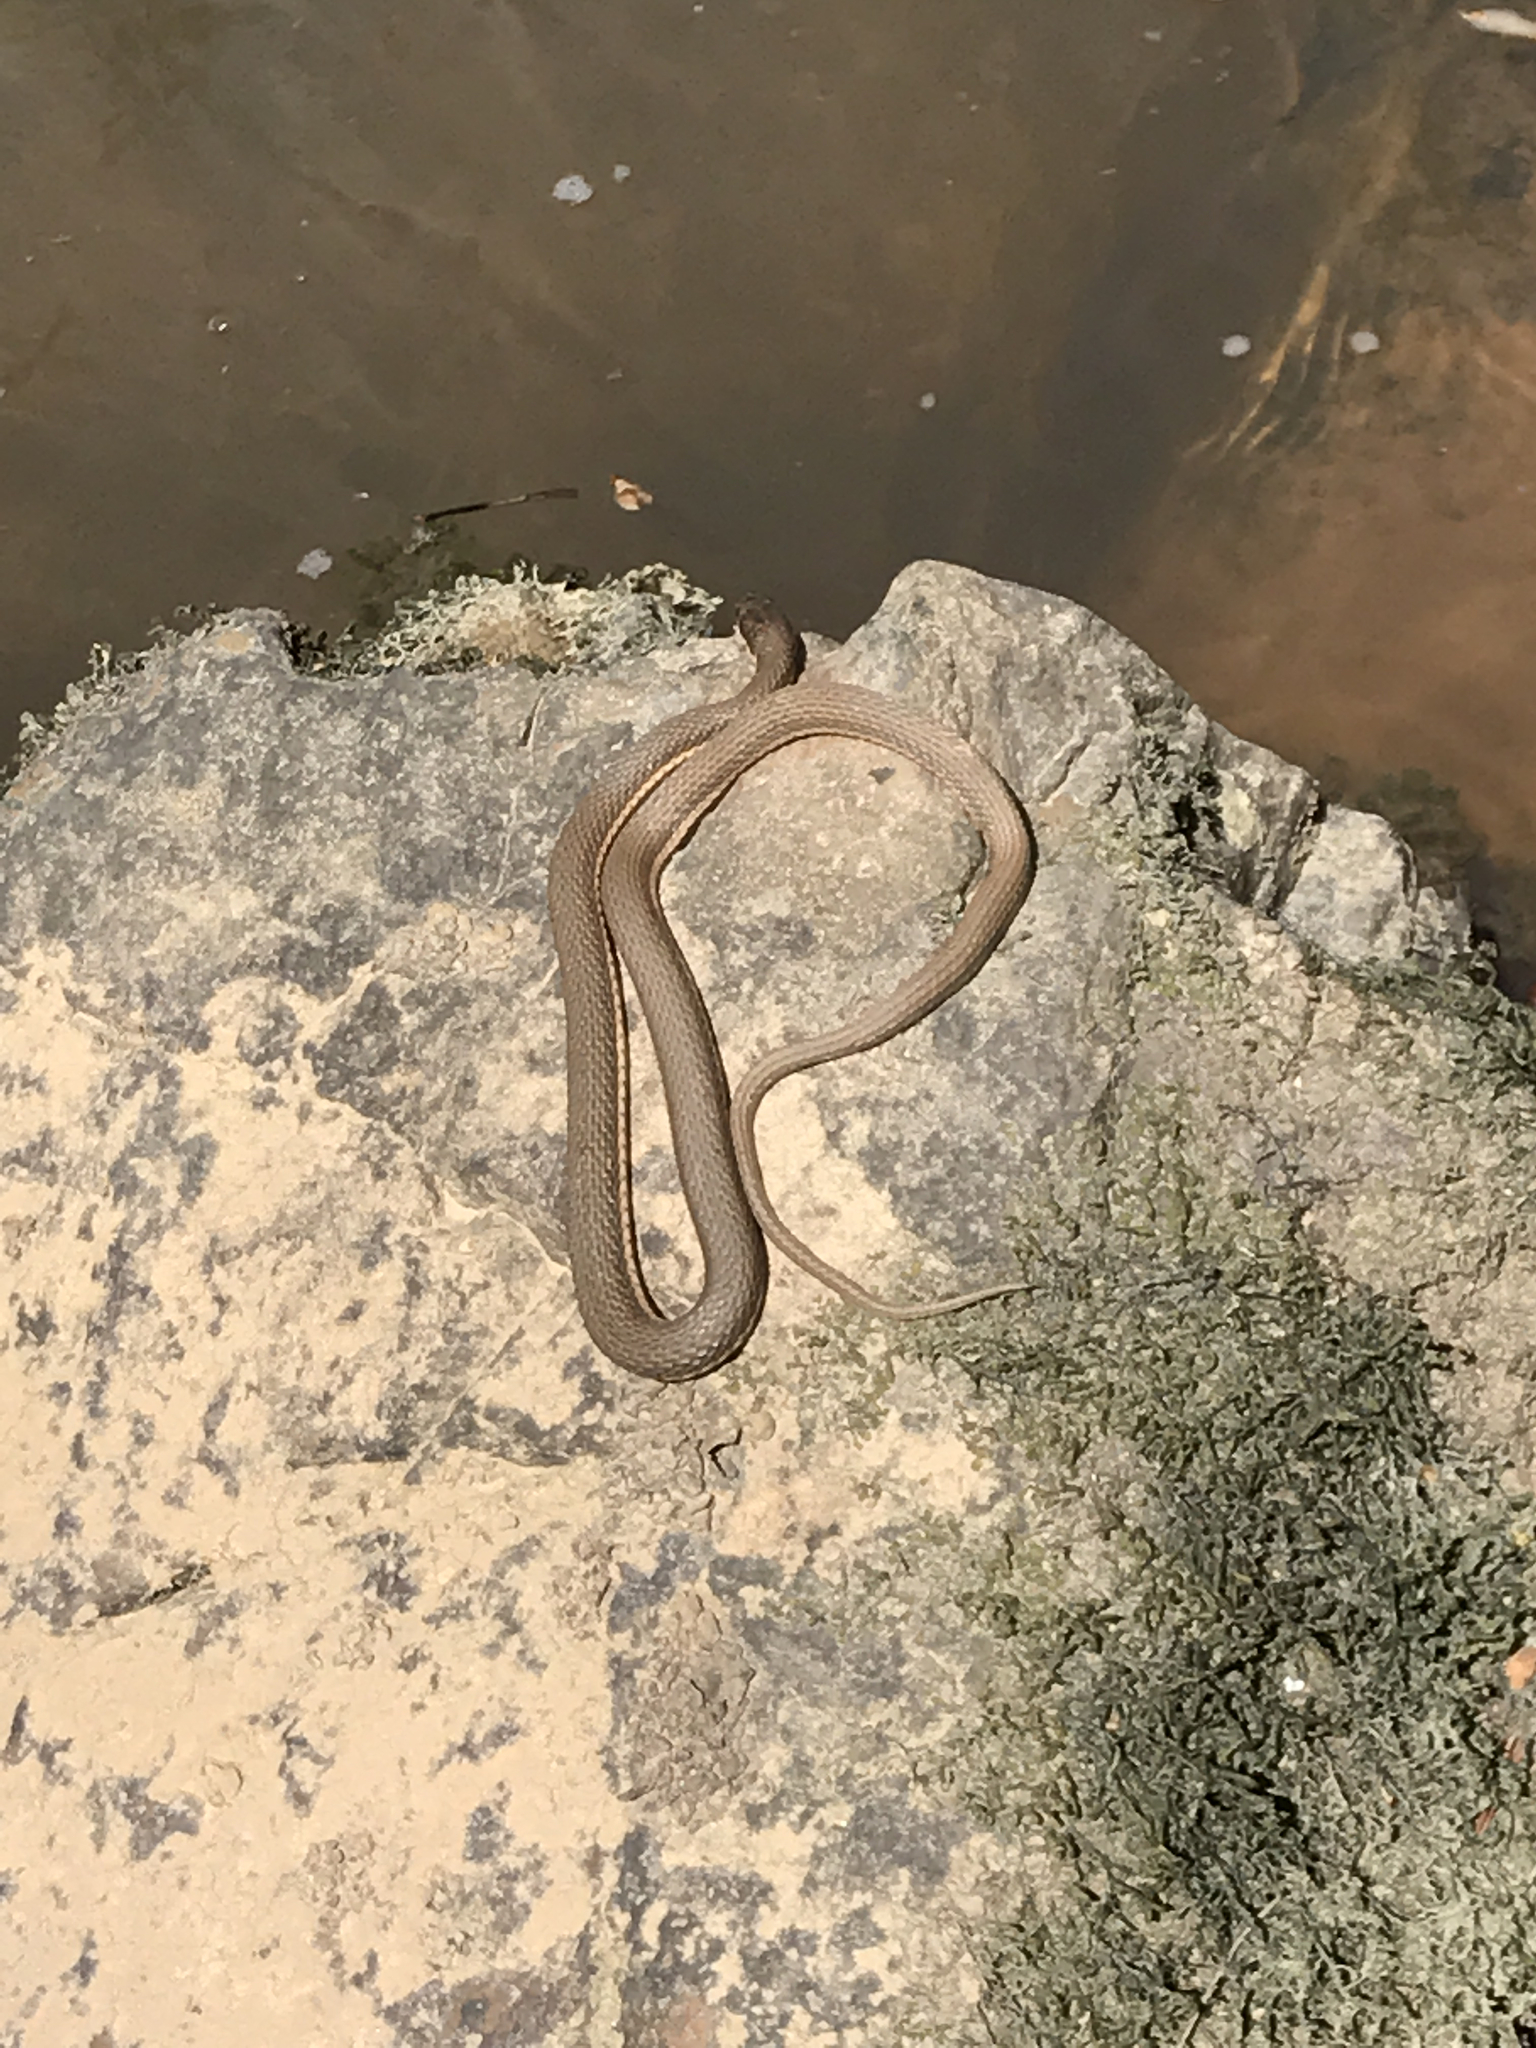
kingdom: Animalia
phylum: Chordata
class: Squamata
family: Colubridae
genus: Regina
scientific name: Regina septemvittata
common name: Queen snake
